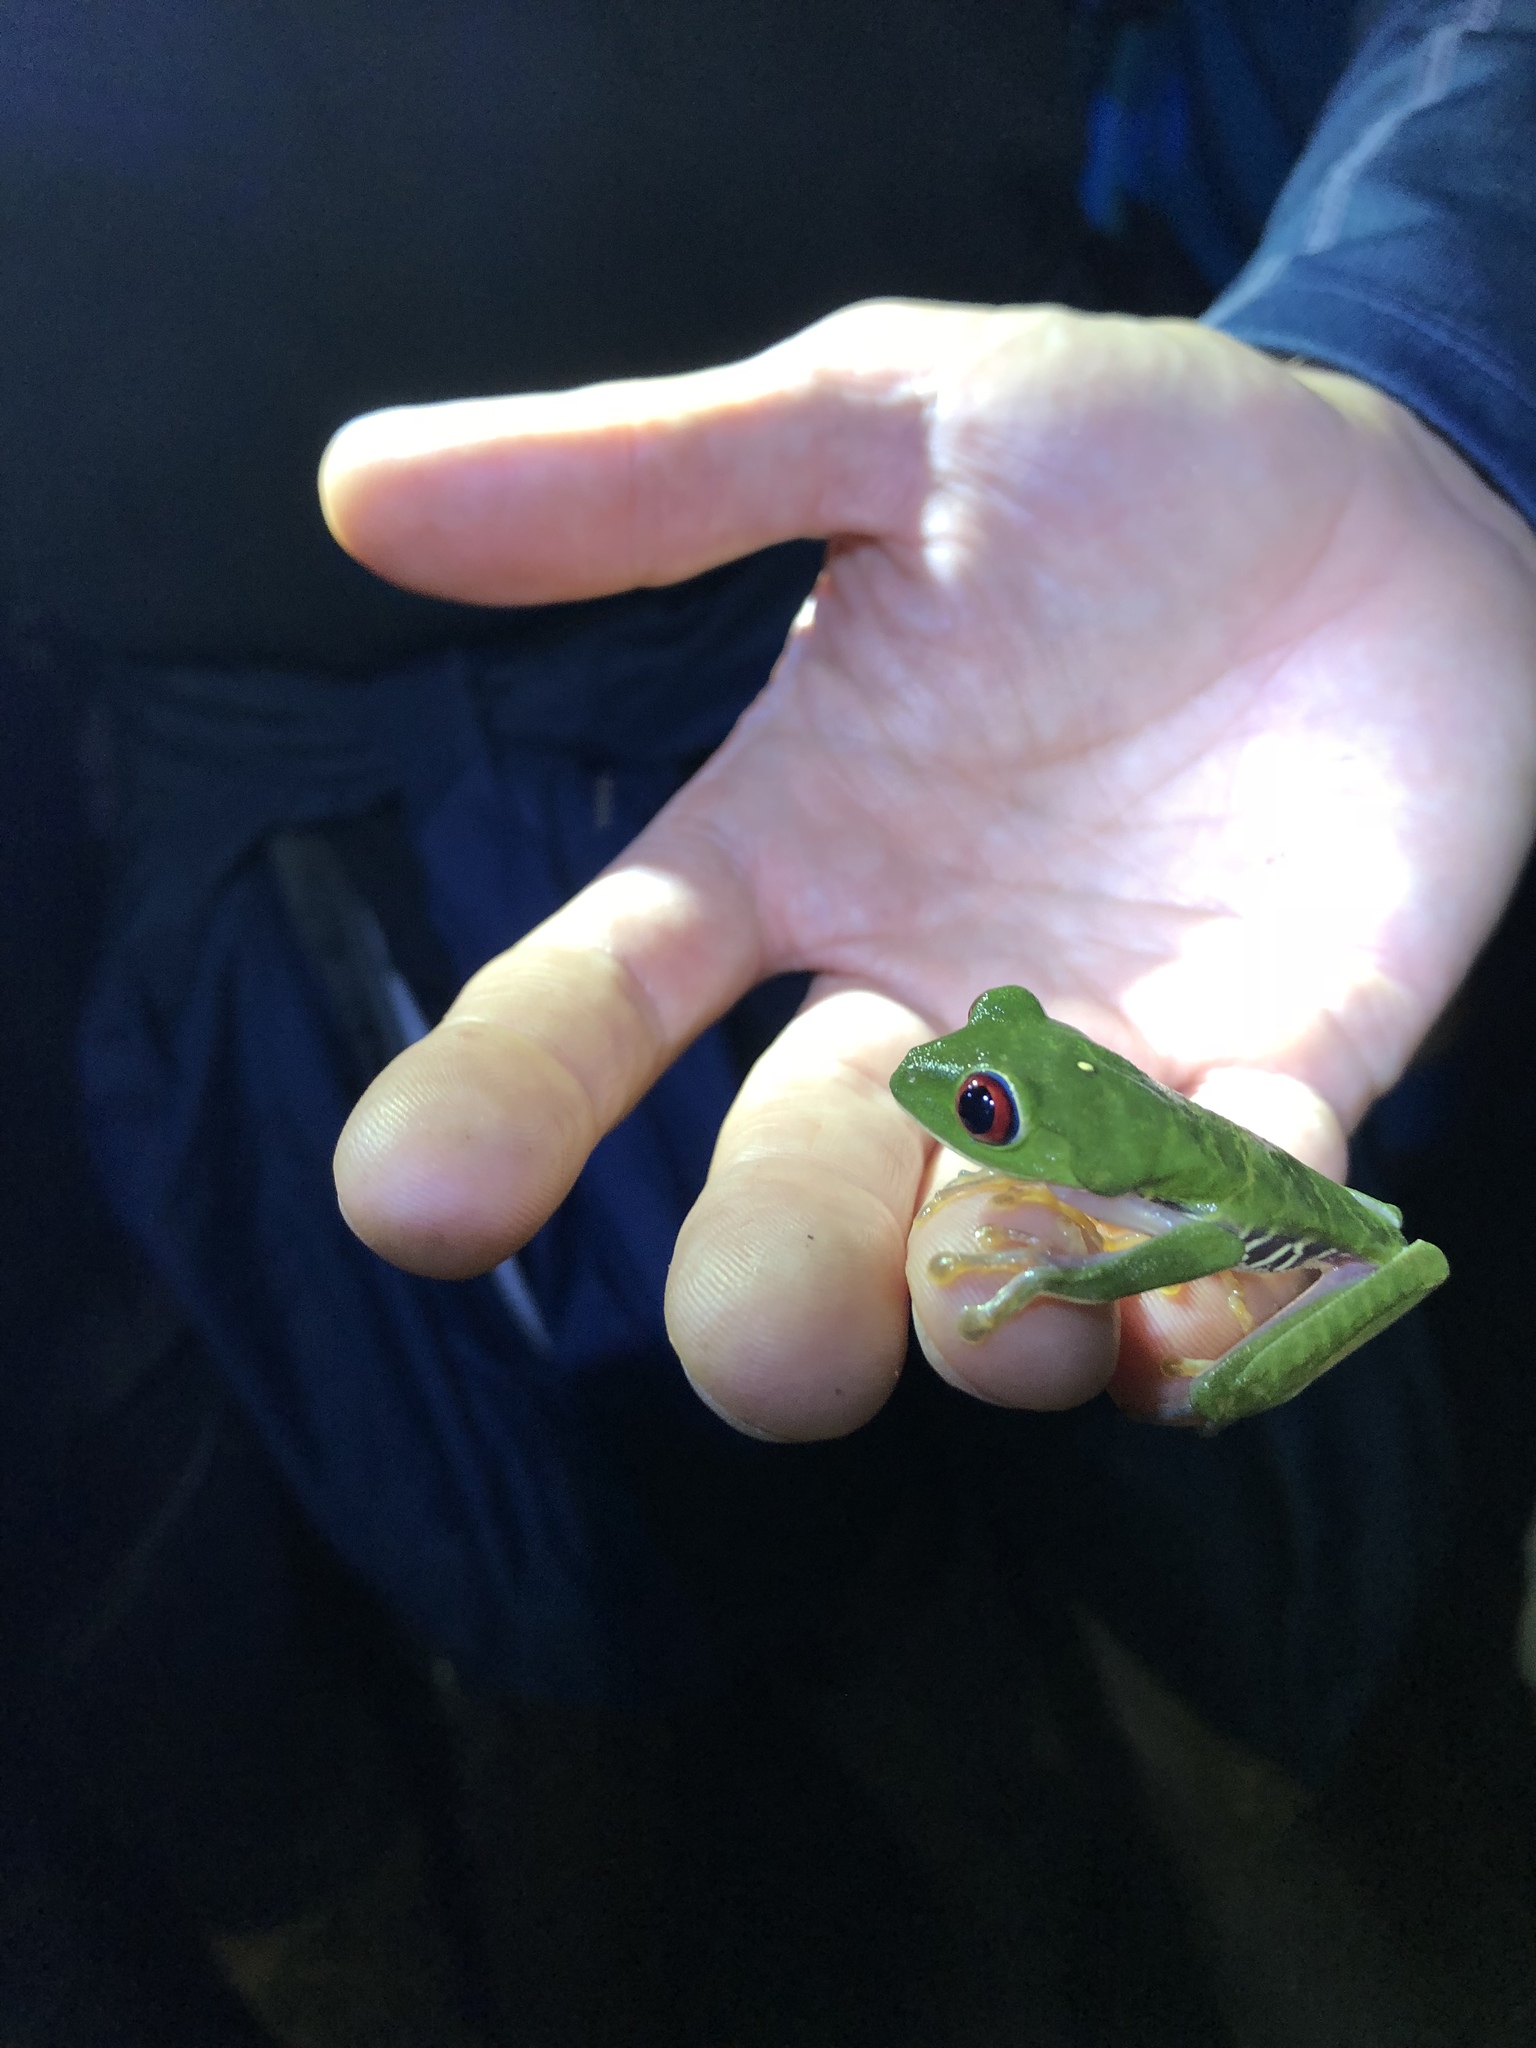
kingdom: Animalia
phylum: Chordata
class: Amphibia
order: Anura
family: Phyllomedusidae
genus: Agalychnis
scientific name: Agalychnis callidryas
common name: Red-eyed treefrog
